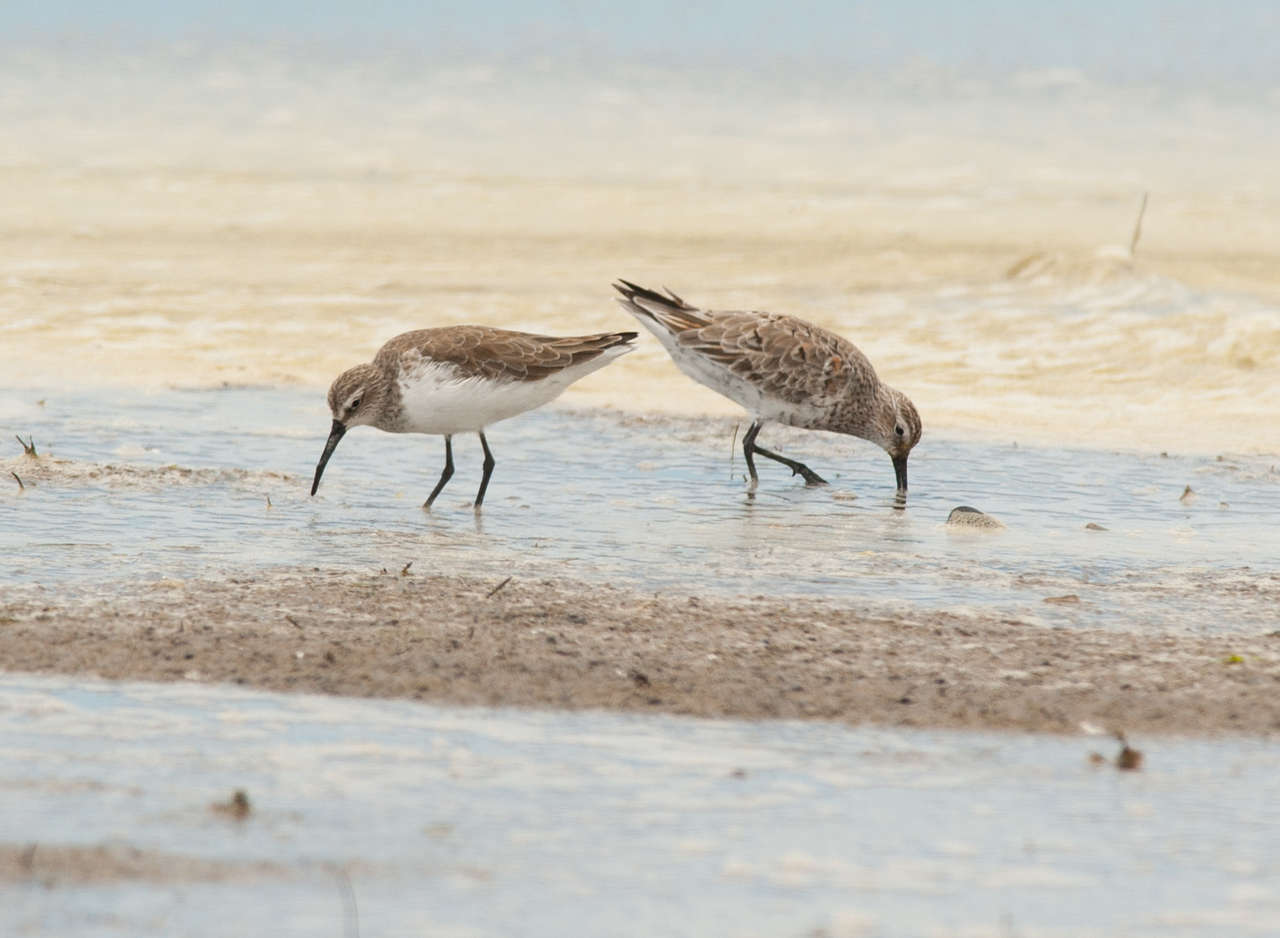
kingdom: Animalia
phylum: Chordata
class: Aves
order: Charadriiformes
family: Scolopacidae
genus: Calidris
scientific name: Calidris ferruginea
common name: Curlew sandpiper
